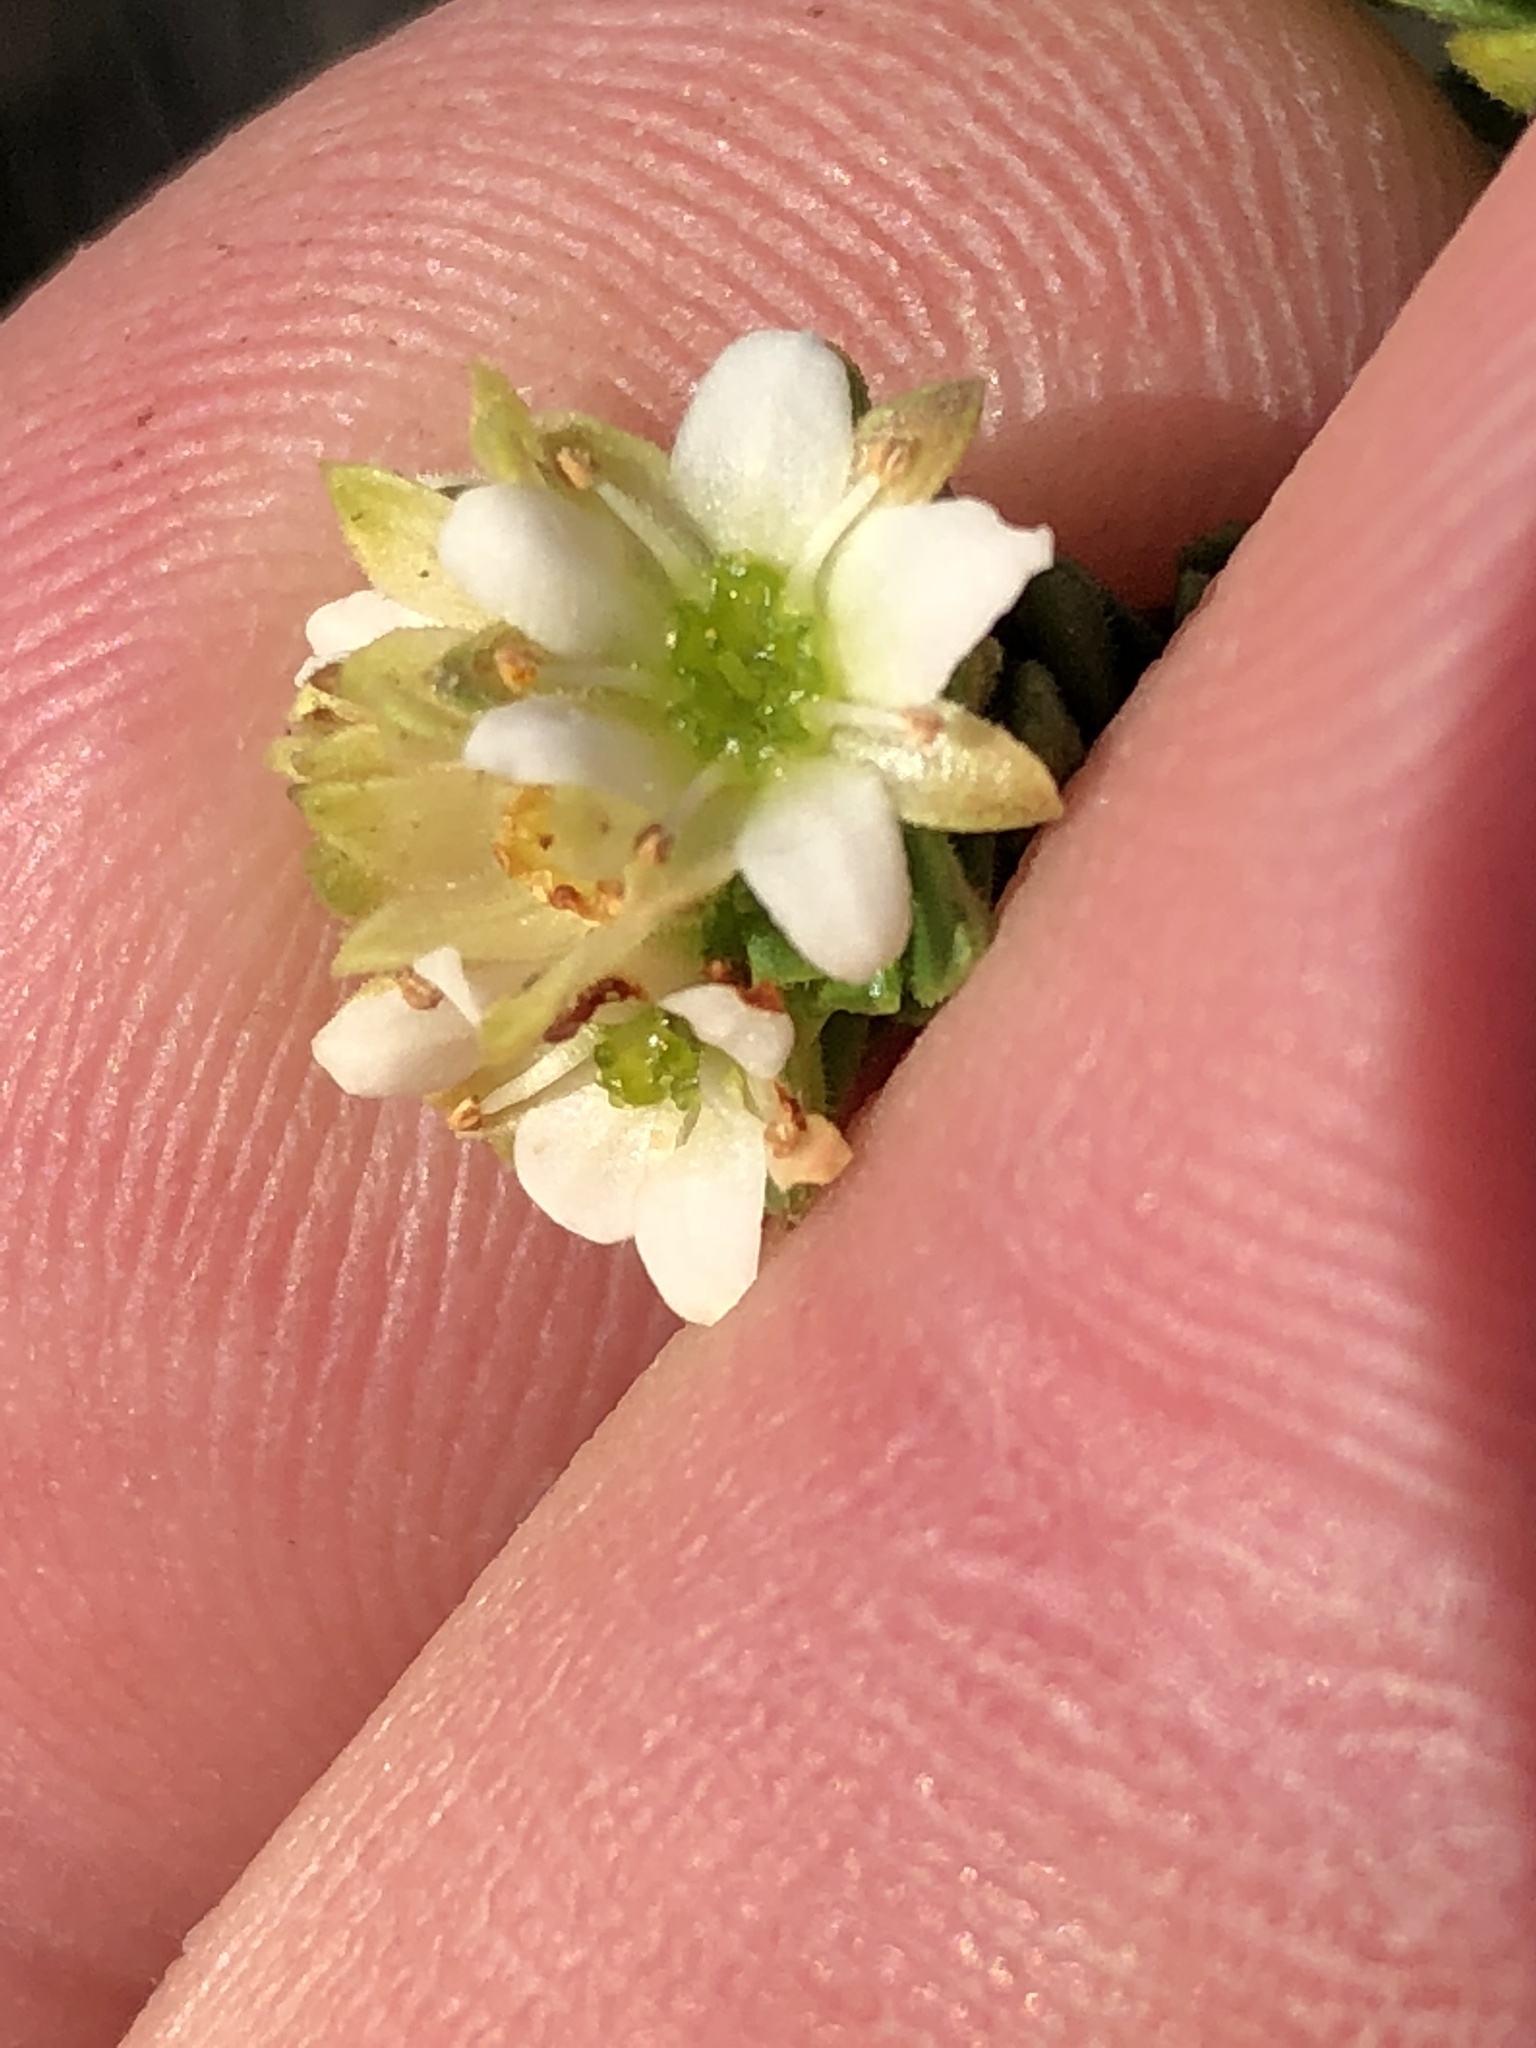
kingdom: Plantae
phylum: Tracheophyta
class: Magnoliopsida
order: Sapindales
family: Rutaceae
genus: Diosma
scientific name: Diosma echinulata
